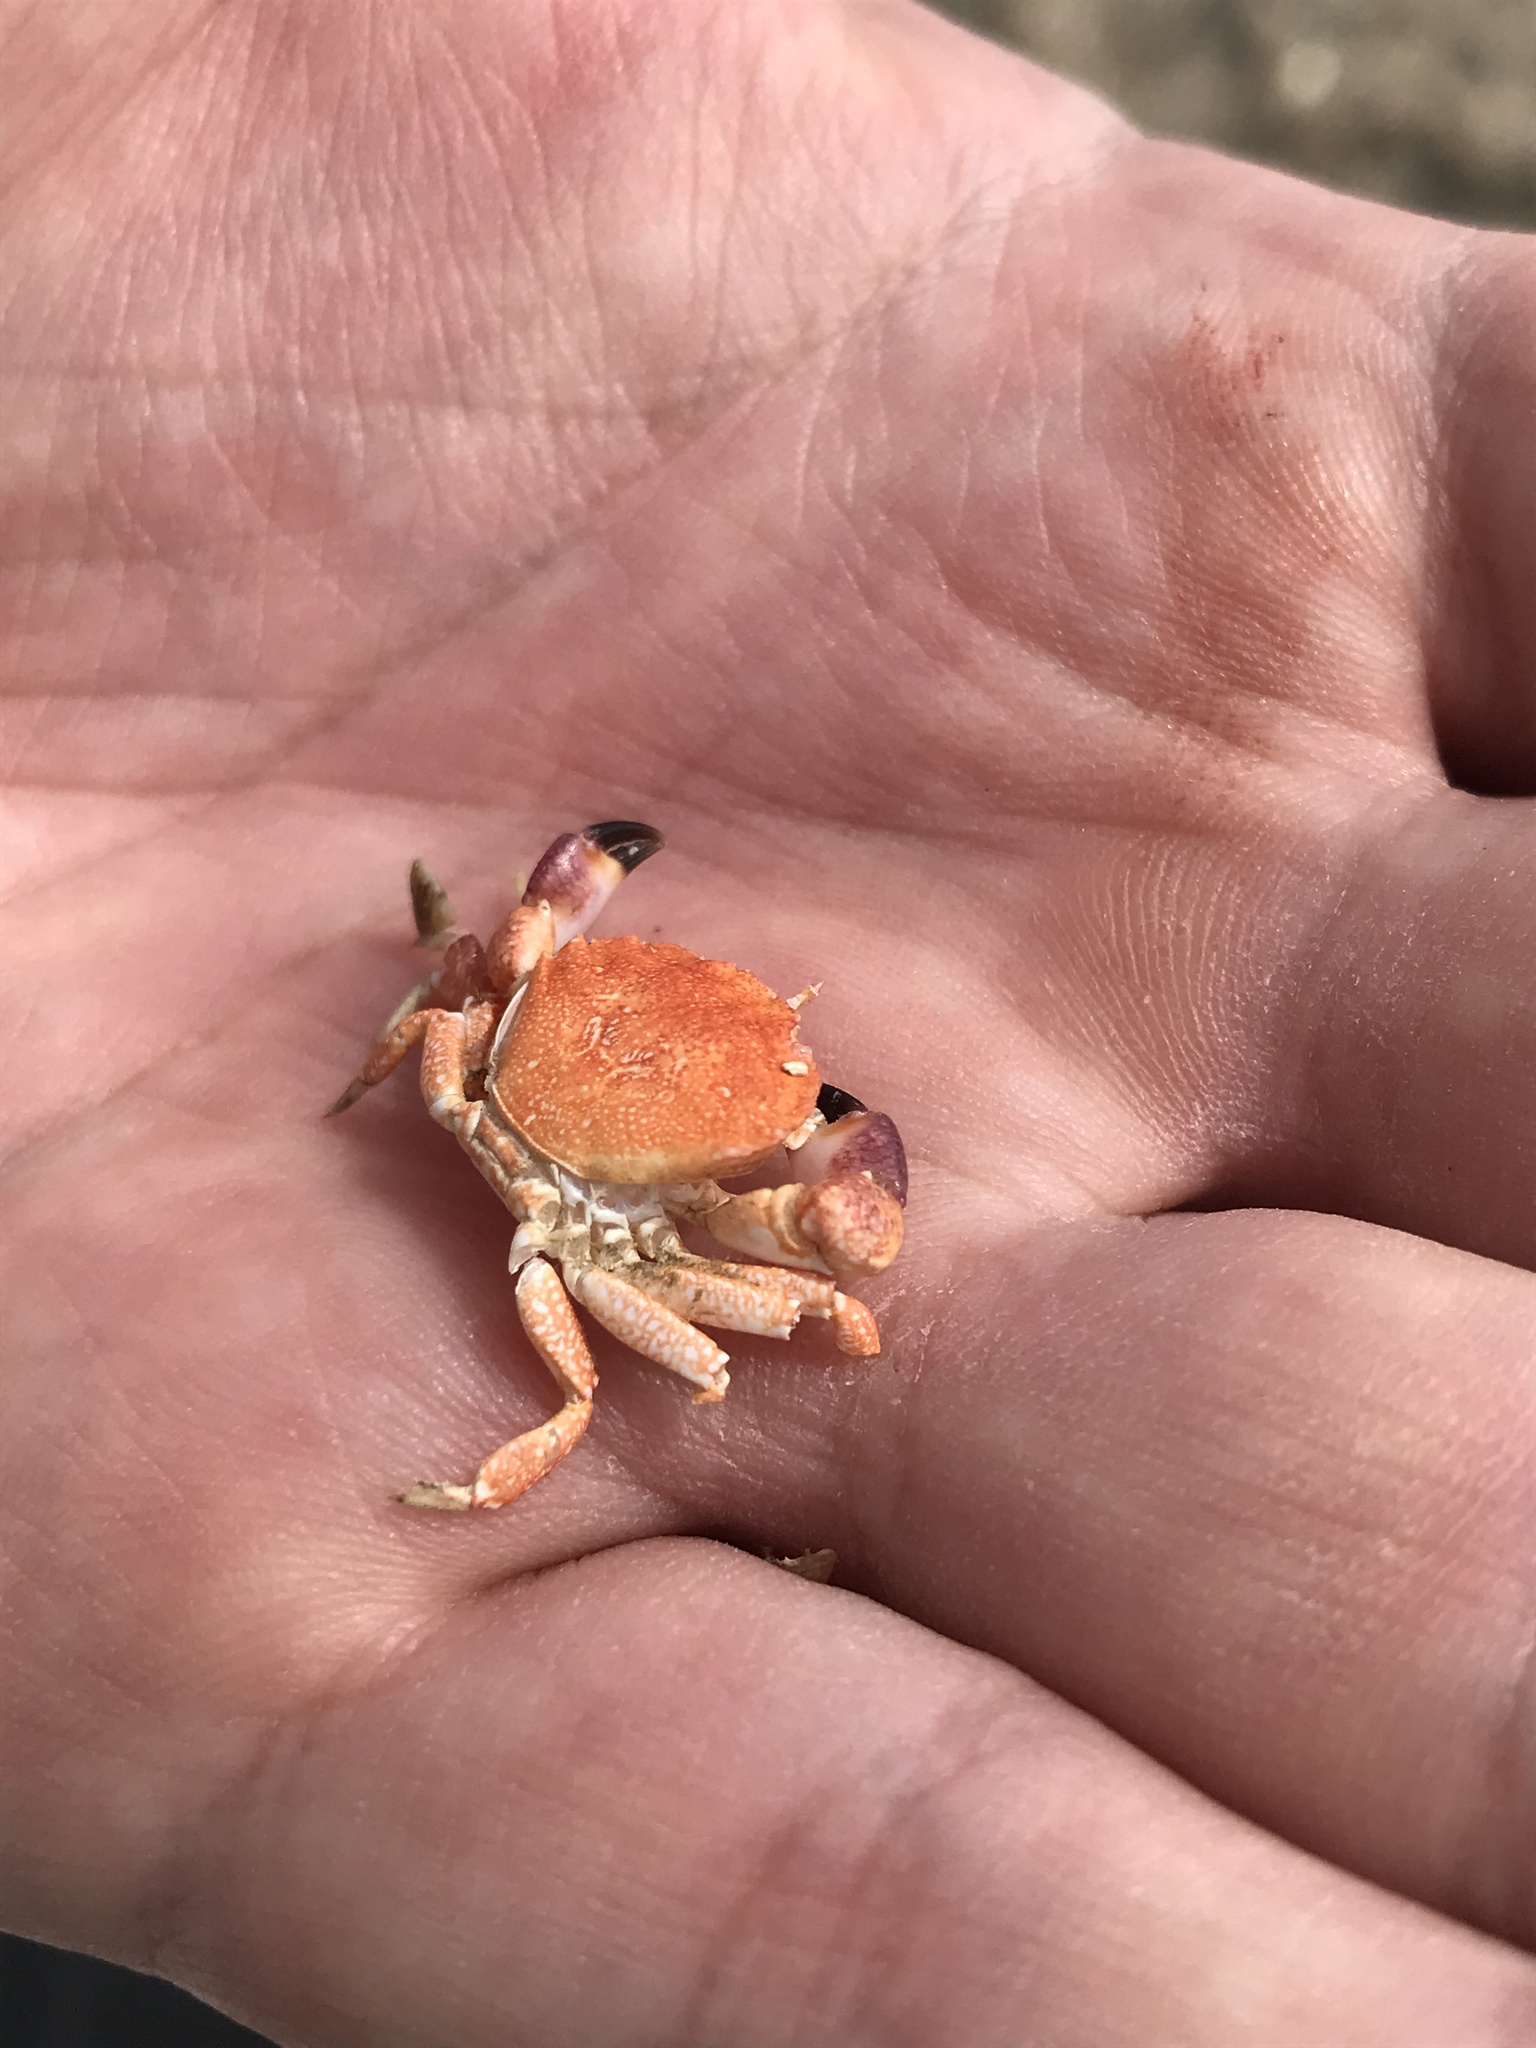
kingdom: Animalia
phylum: Arthropoda
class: Malacostraca
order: Decapoda
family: Platyxanthidae
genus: Danielethus
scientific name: Danielethus crenulatus
